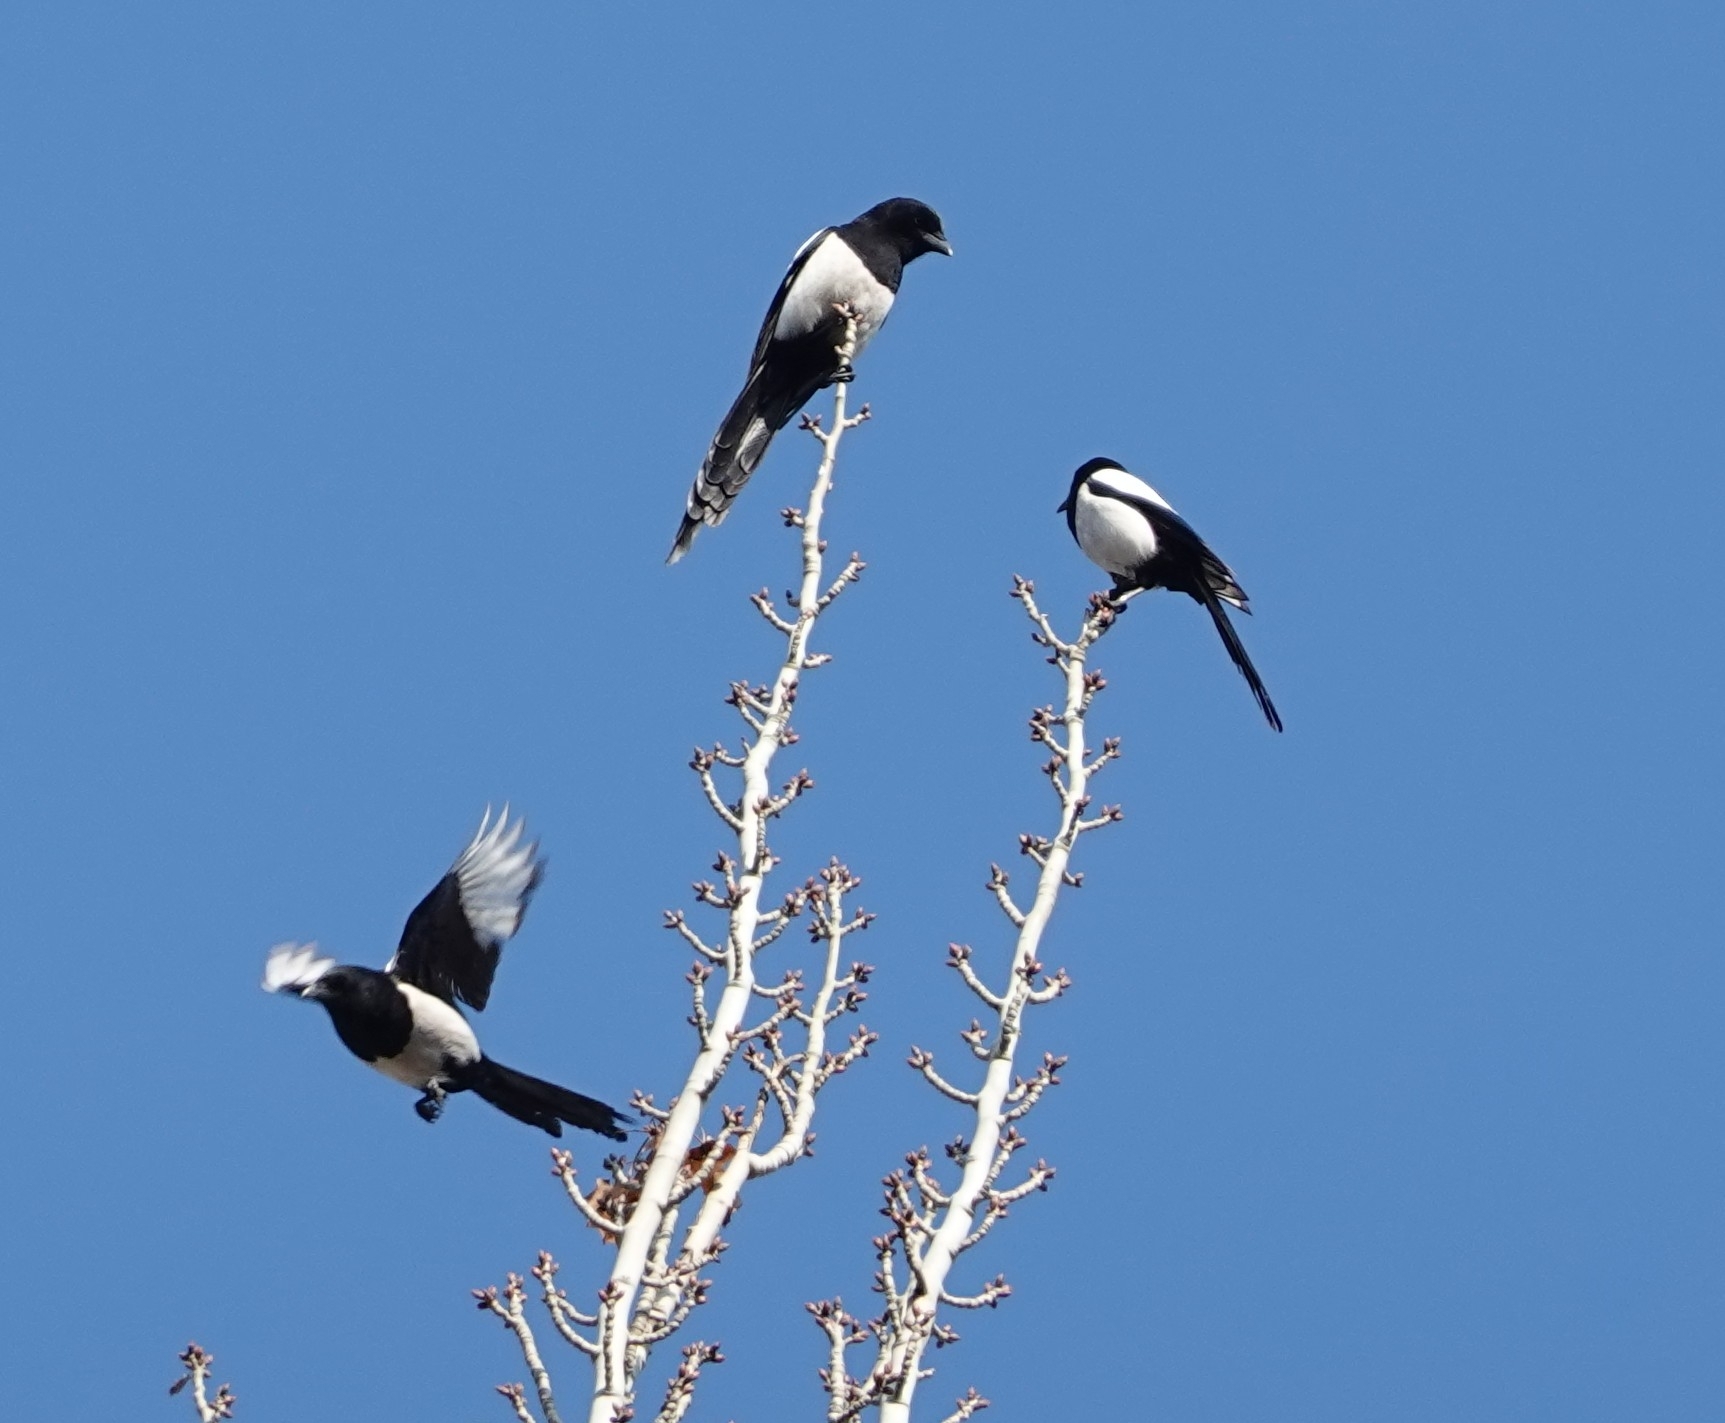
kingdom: Animalia
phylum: Chordata
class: Aves
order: Passeriformes
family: Corvidae
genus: Pica
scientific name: Pica pica
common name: Eurasian magpie
